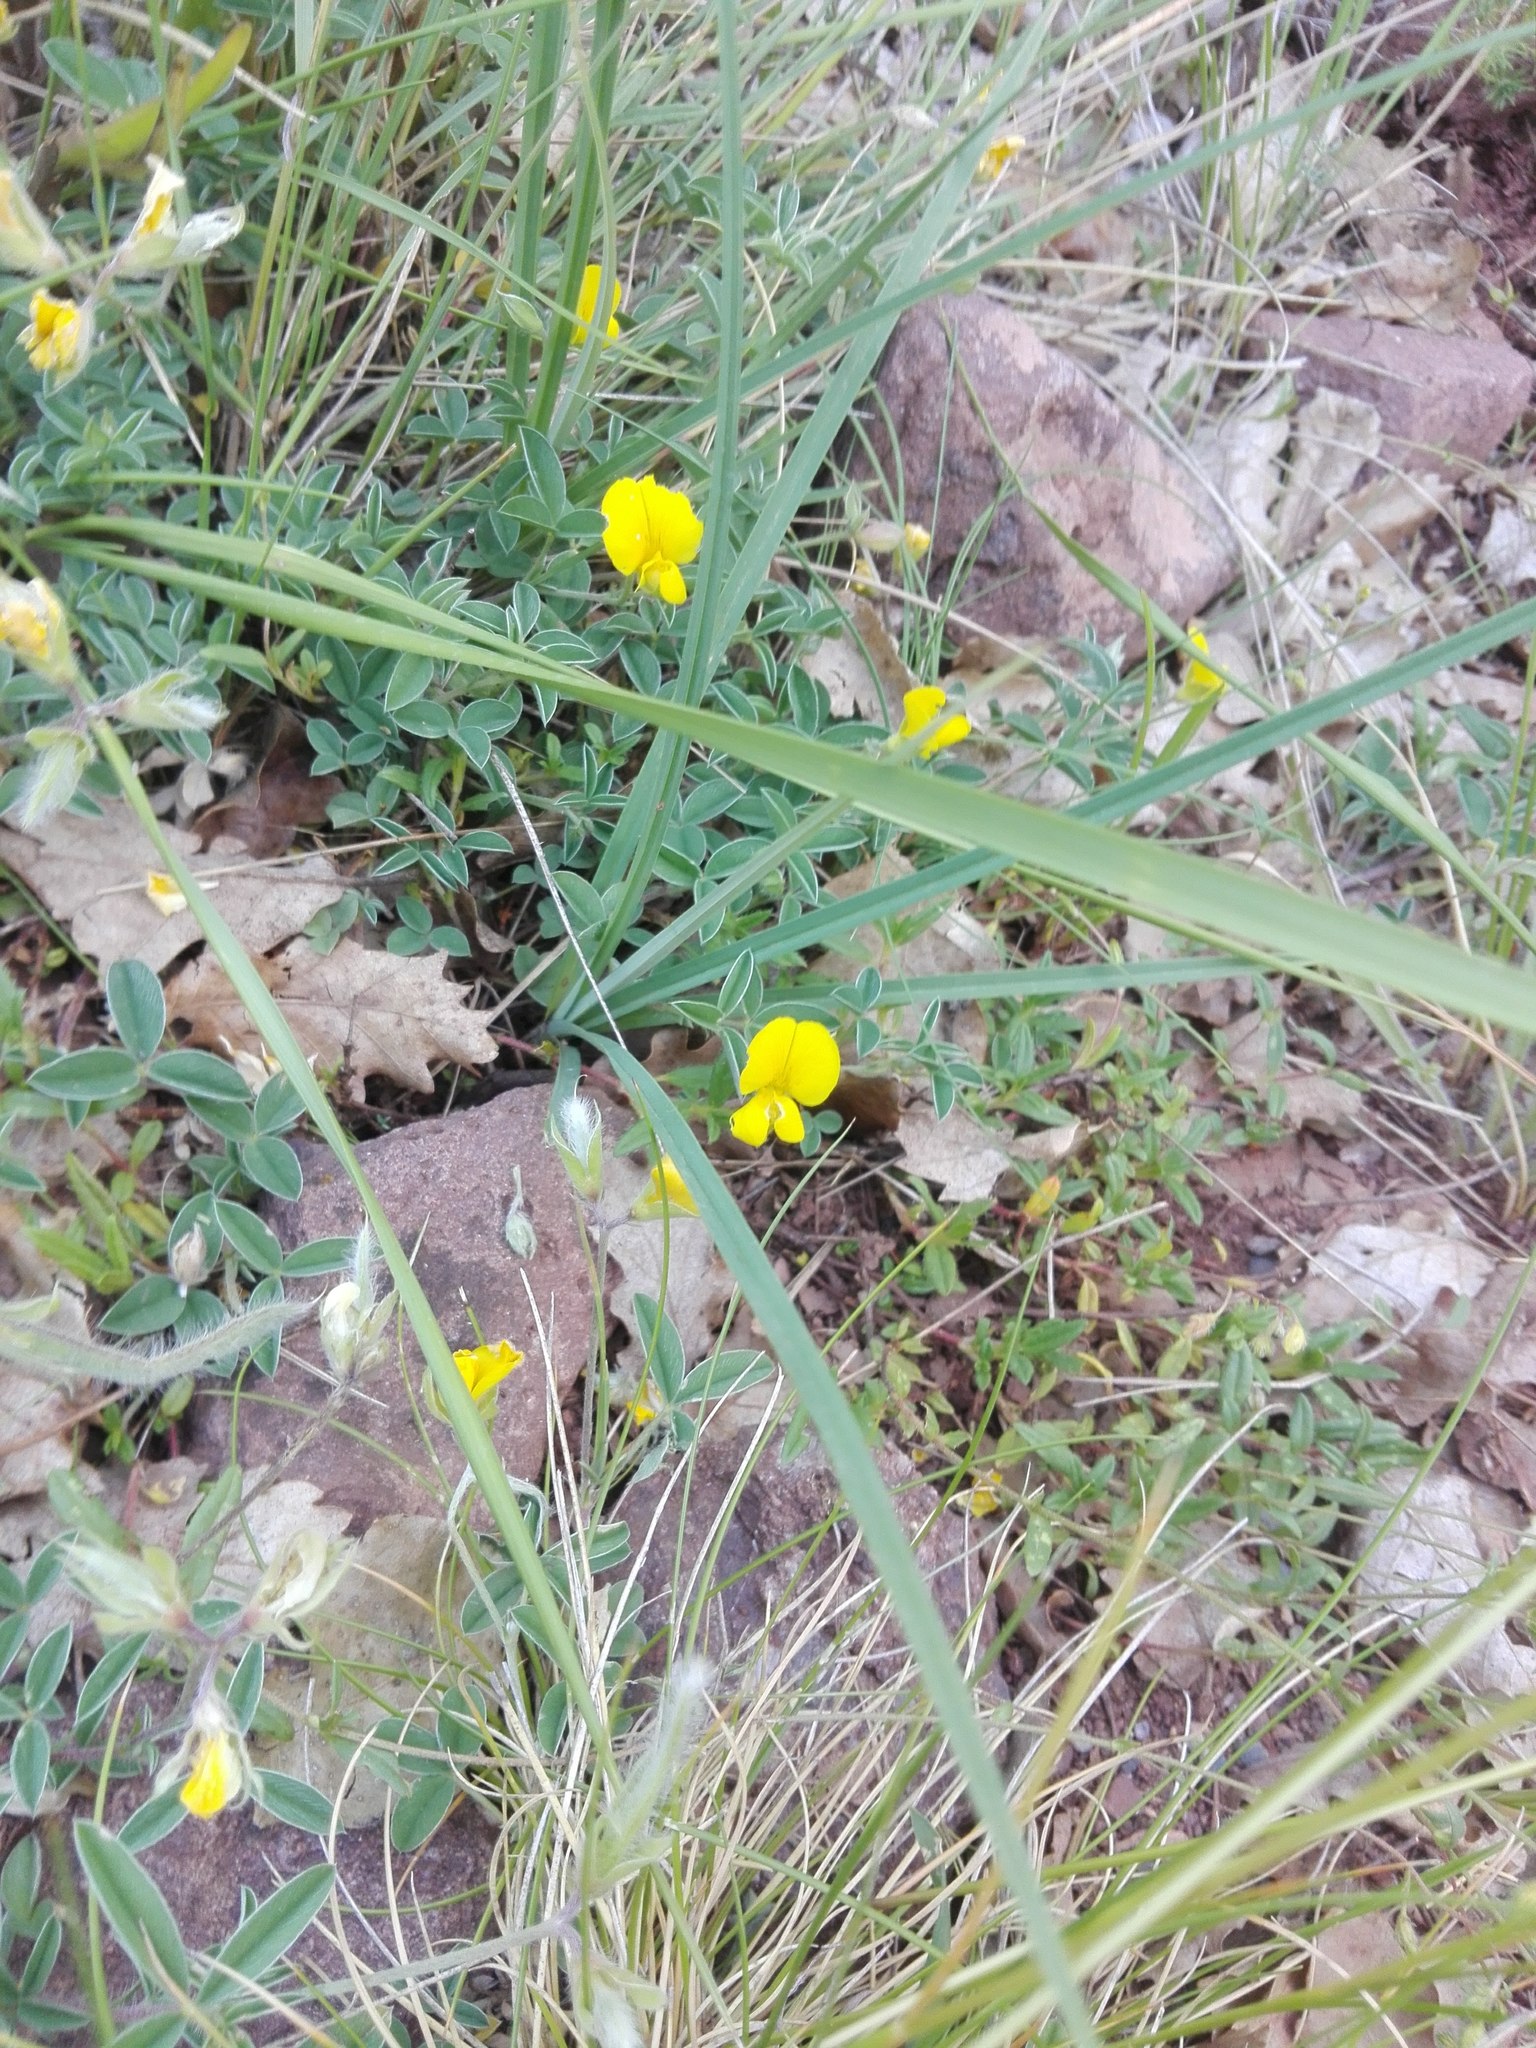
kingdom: Plantae
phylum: Tracheophyta
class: Magnoliopsida
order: Fabales
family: Fabaceae
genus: Argyrolobium
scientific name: Argyrolobium zanonii
